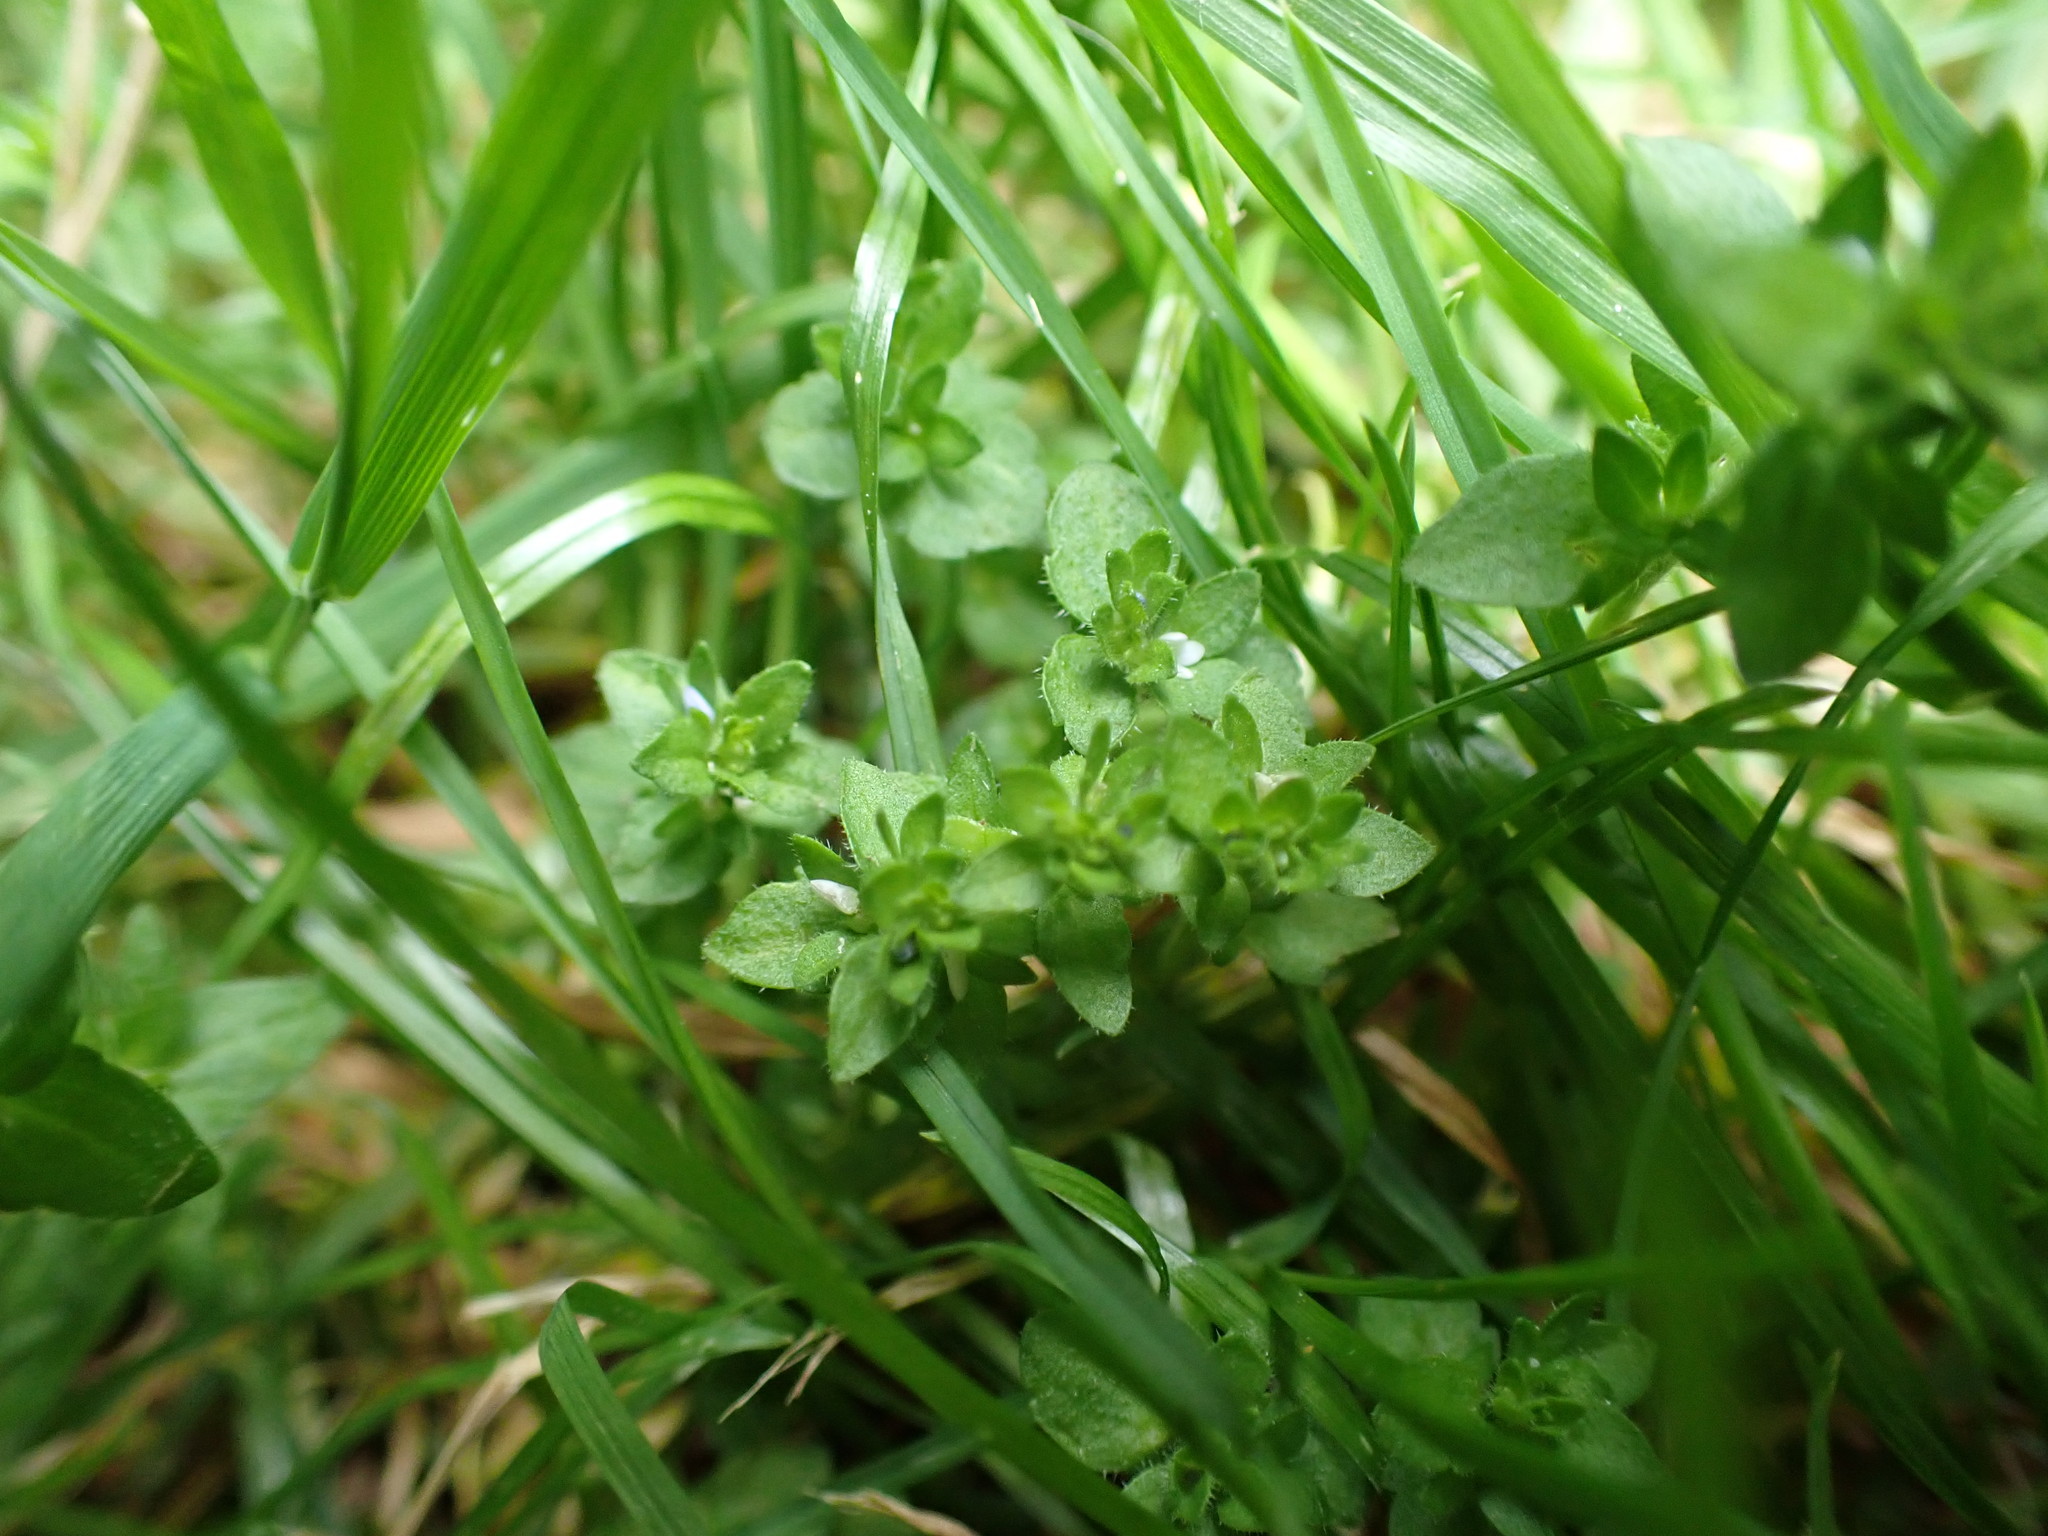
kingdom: Plantae
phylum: Tracheophyta
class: Magnoliopsida
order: Lamiales
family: Plantaginaceae
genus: Veronica
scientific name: Veronica arvensis
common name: Corn speedwell
